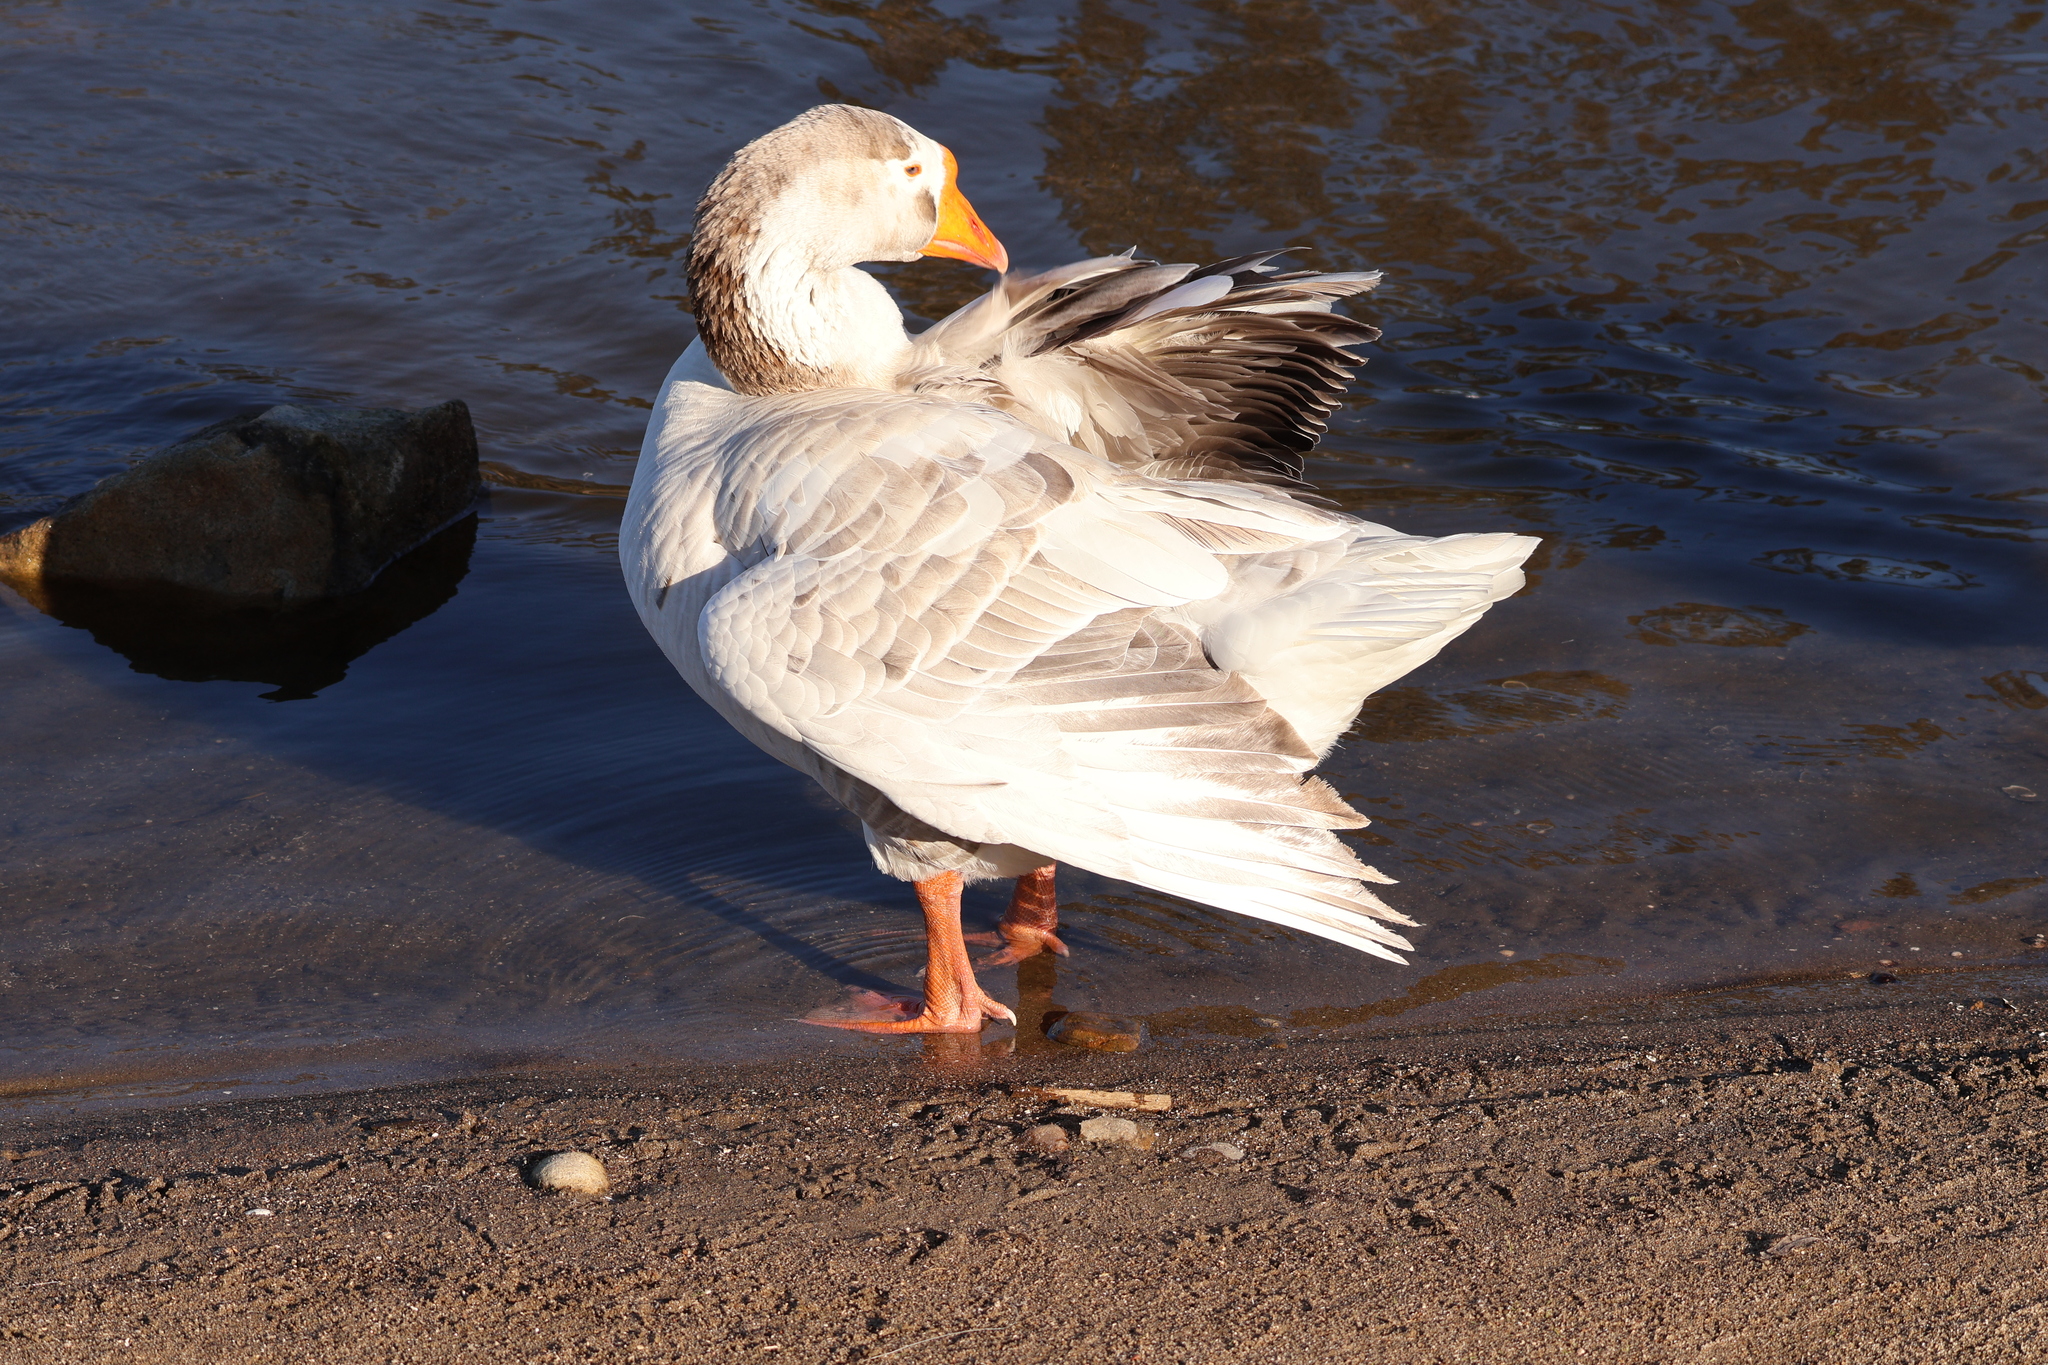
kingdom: Animalia
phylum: Chordata
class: Aves
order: Anseriformes
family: Anatidae
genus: Anser
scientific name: Anser
